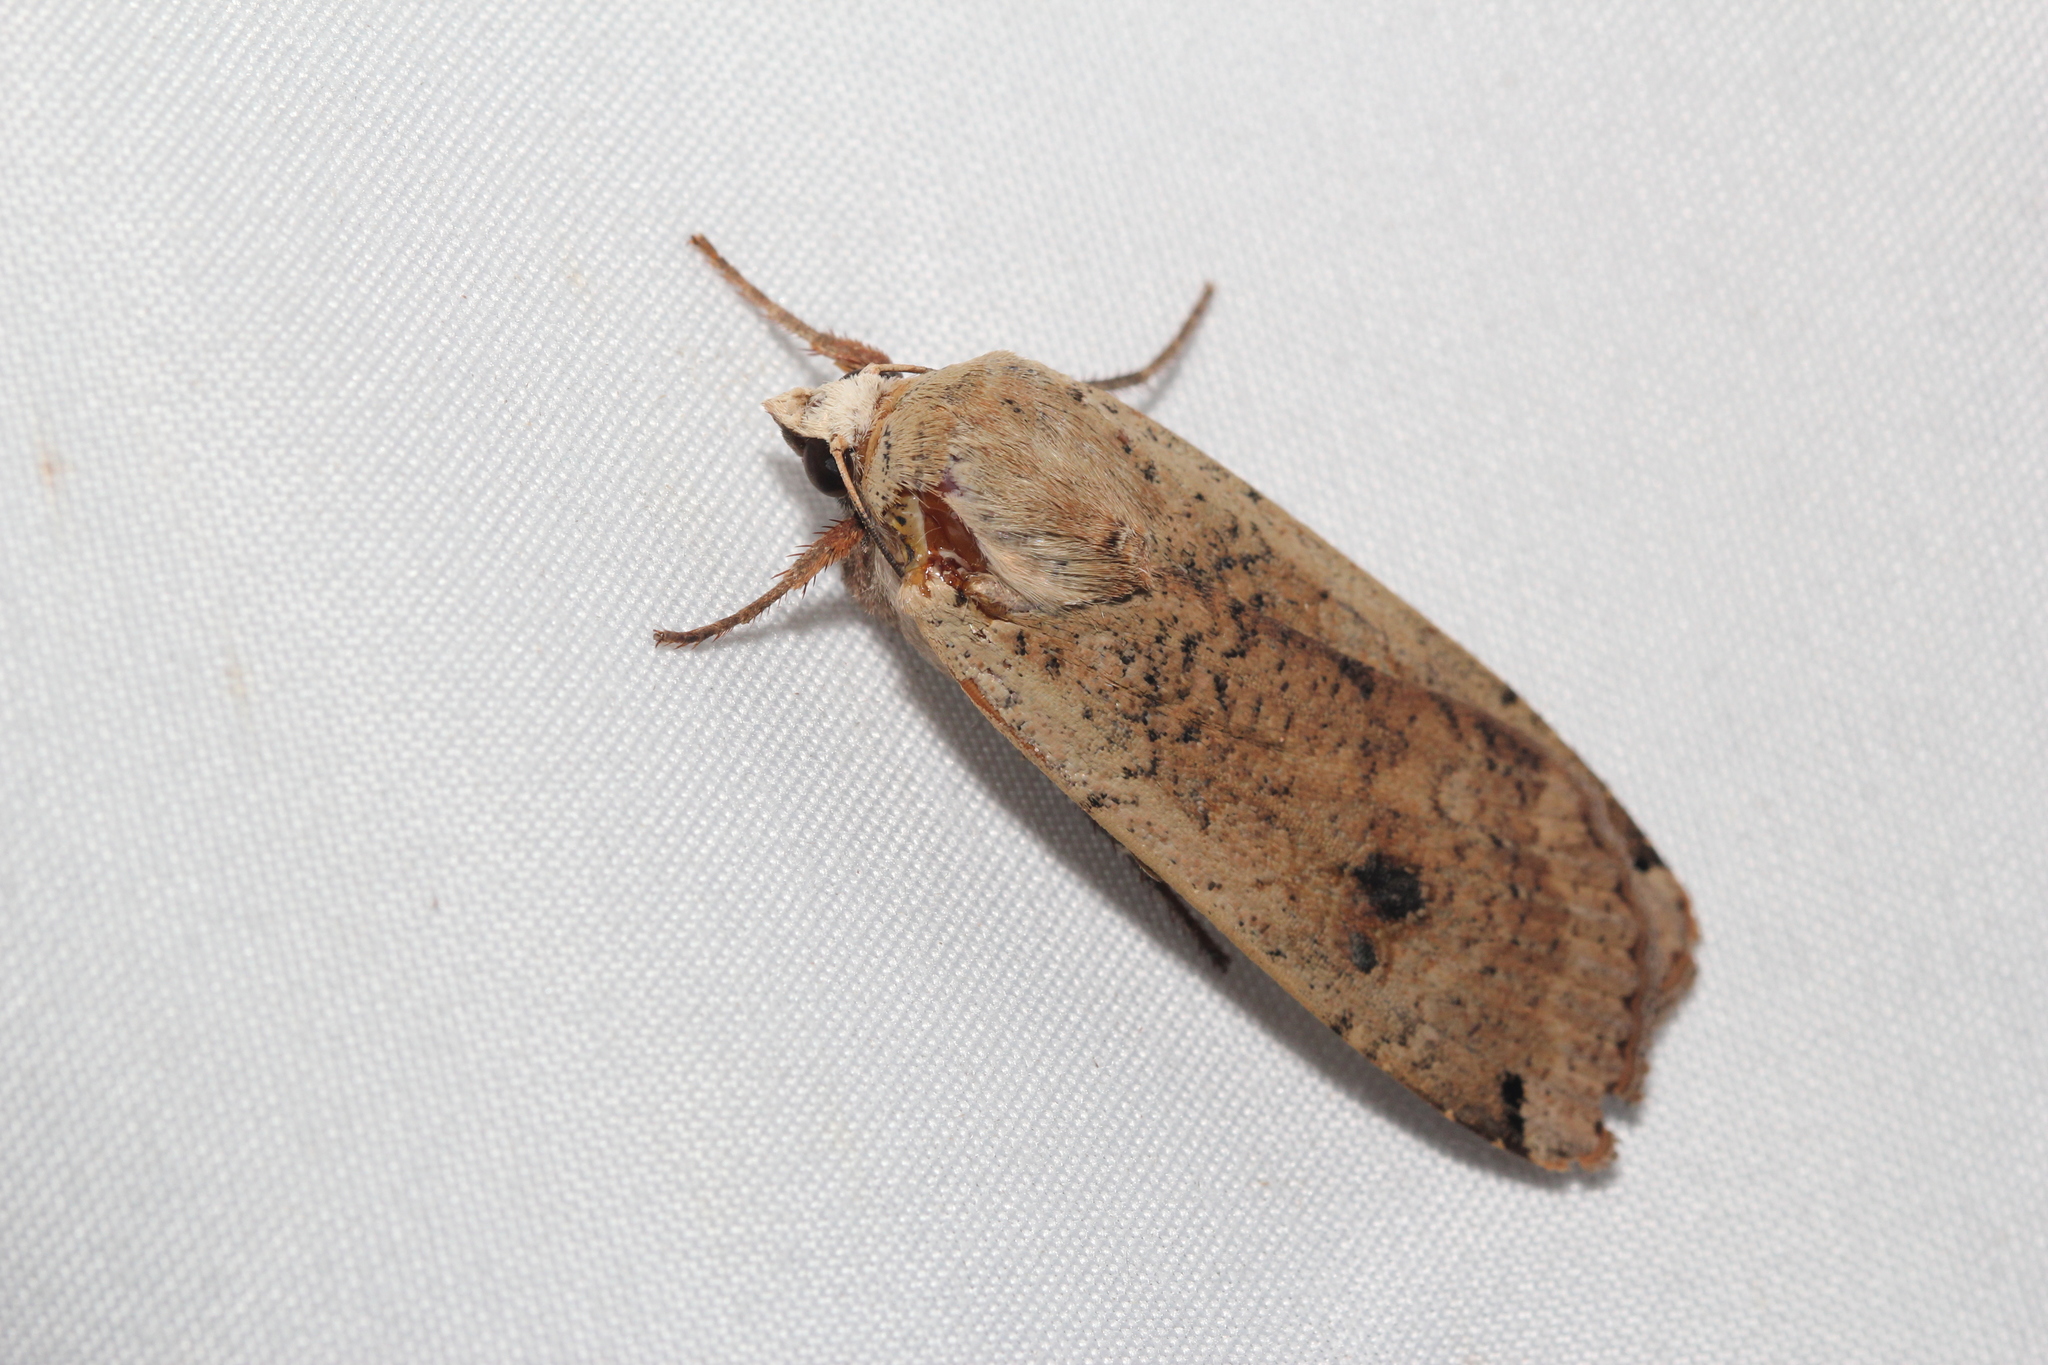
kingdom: Animalia
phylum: Arthropoda
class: Insecta
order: Lepidoptera
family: Noctuidae
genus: Noctua
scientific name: Noctua pronuba
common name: Large yellow underwing
